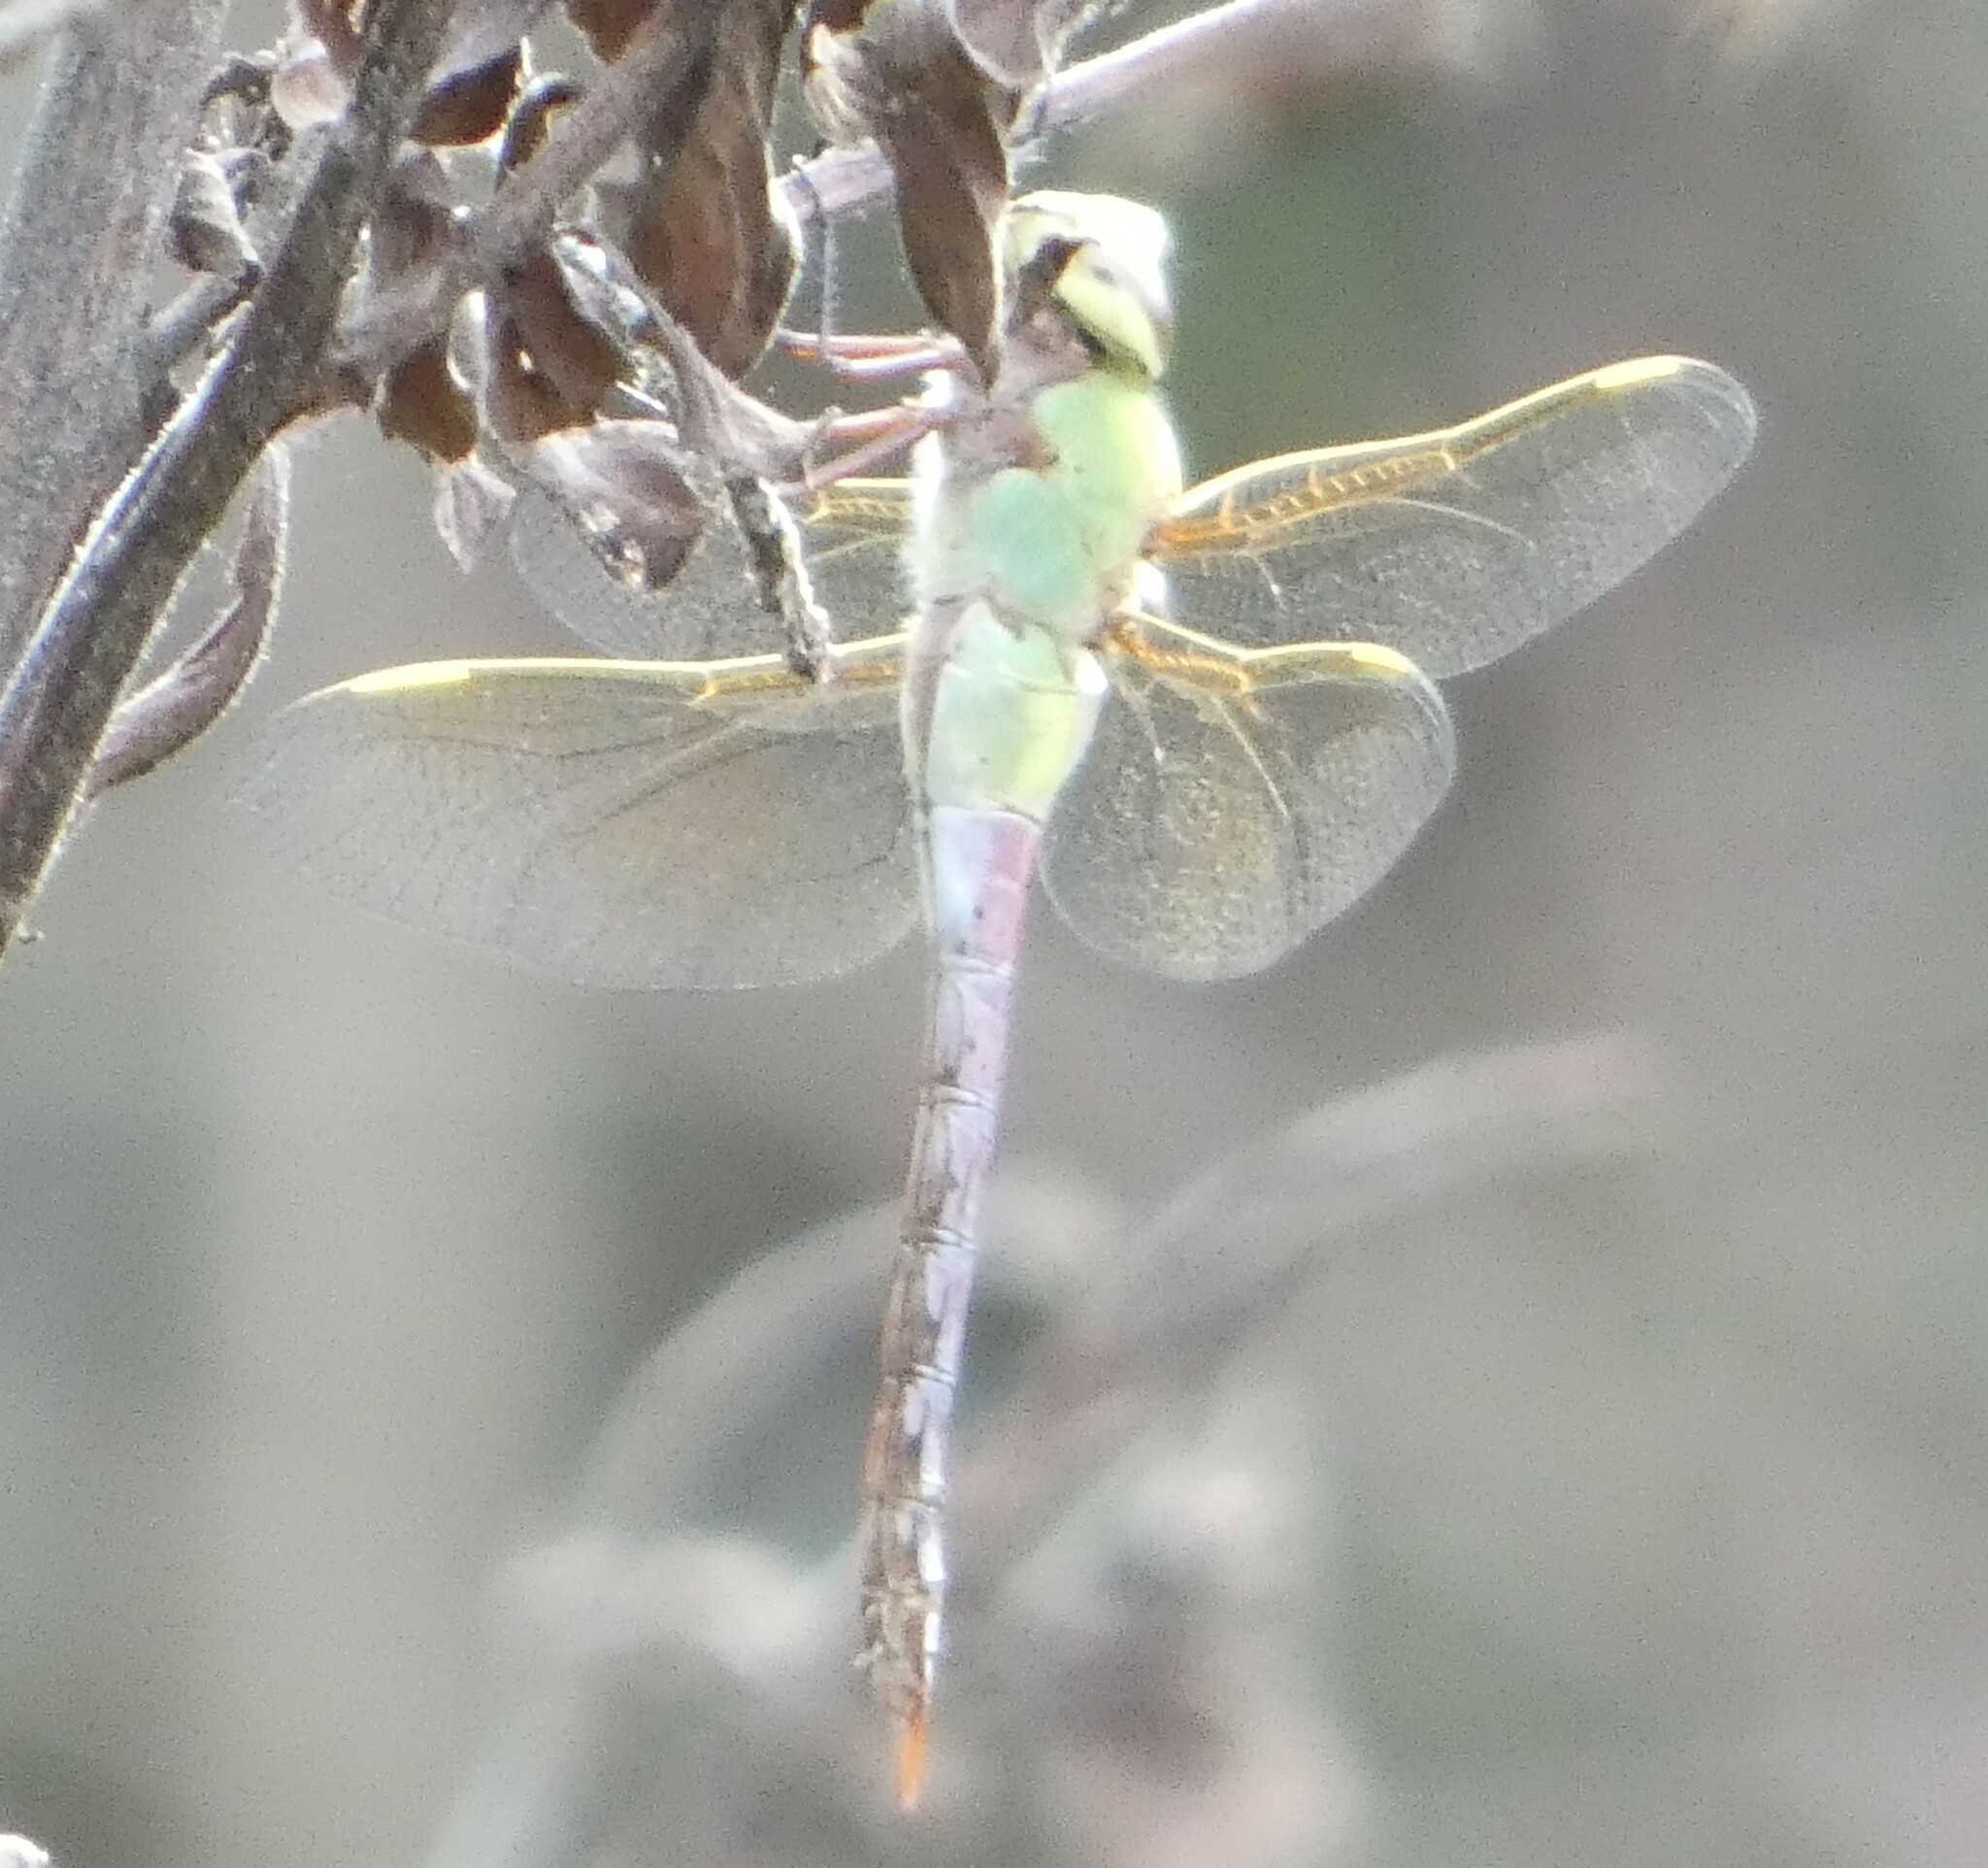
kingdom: Animalia
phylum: Arthropoda
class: Insecta
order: Odonata
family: Aeshnidae
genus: Anax
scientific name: Anax junius
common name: Common green darner
